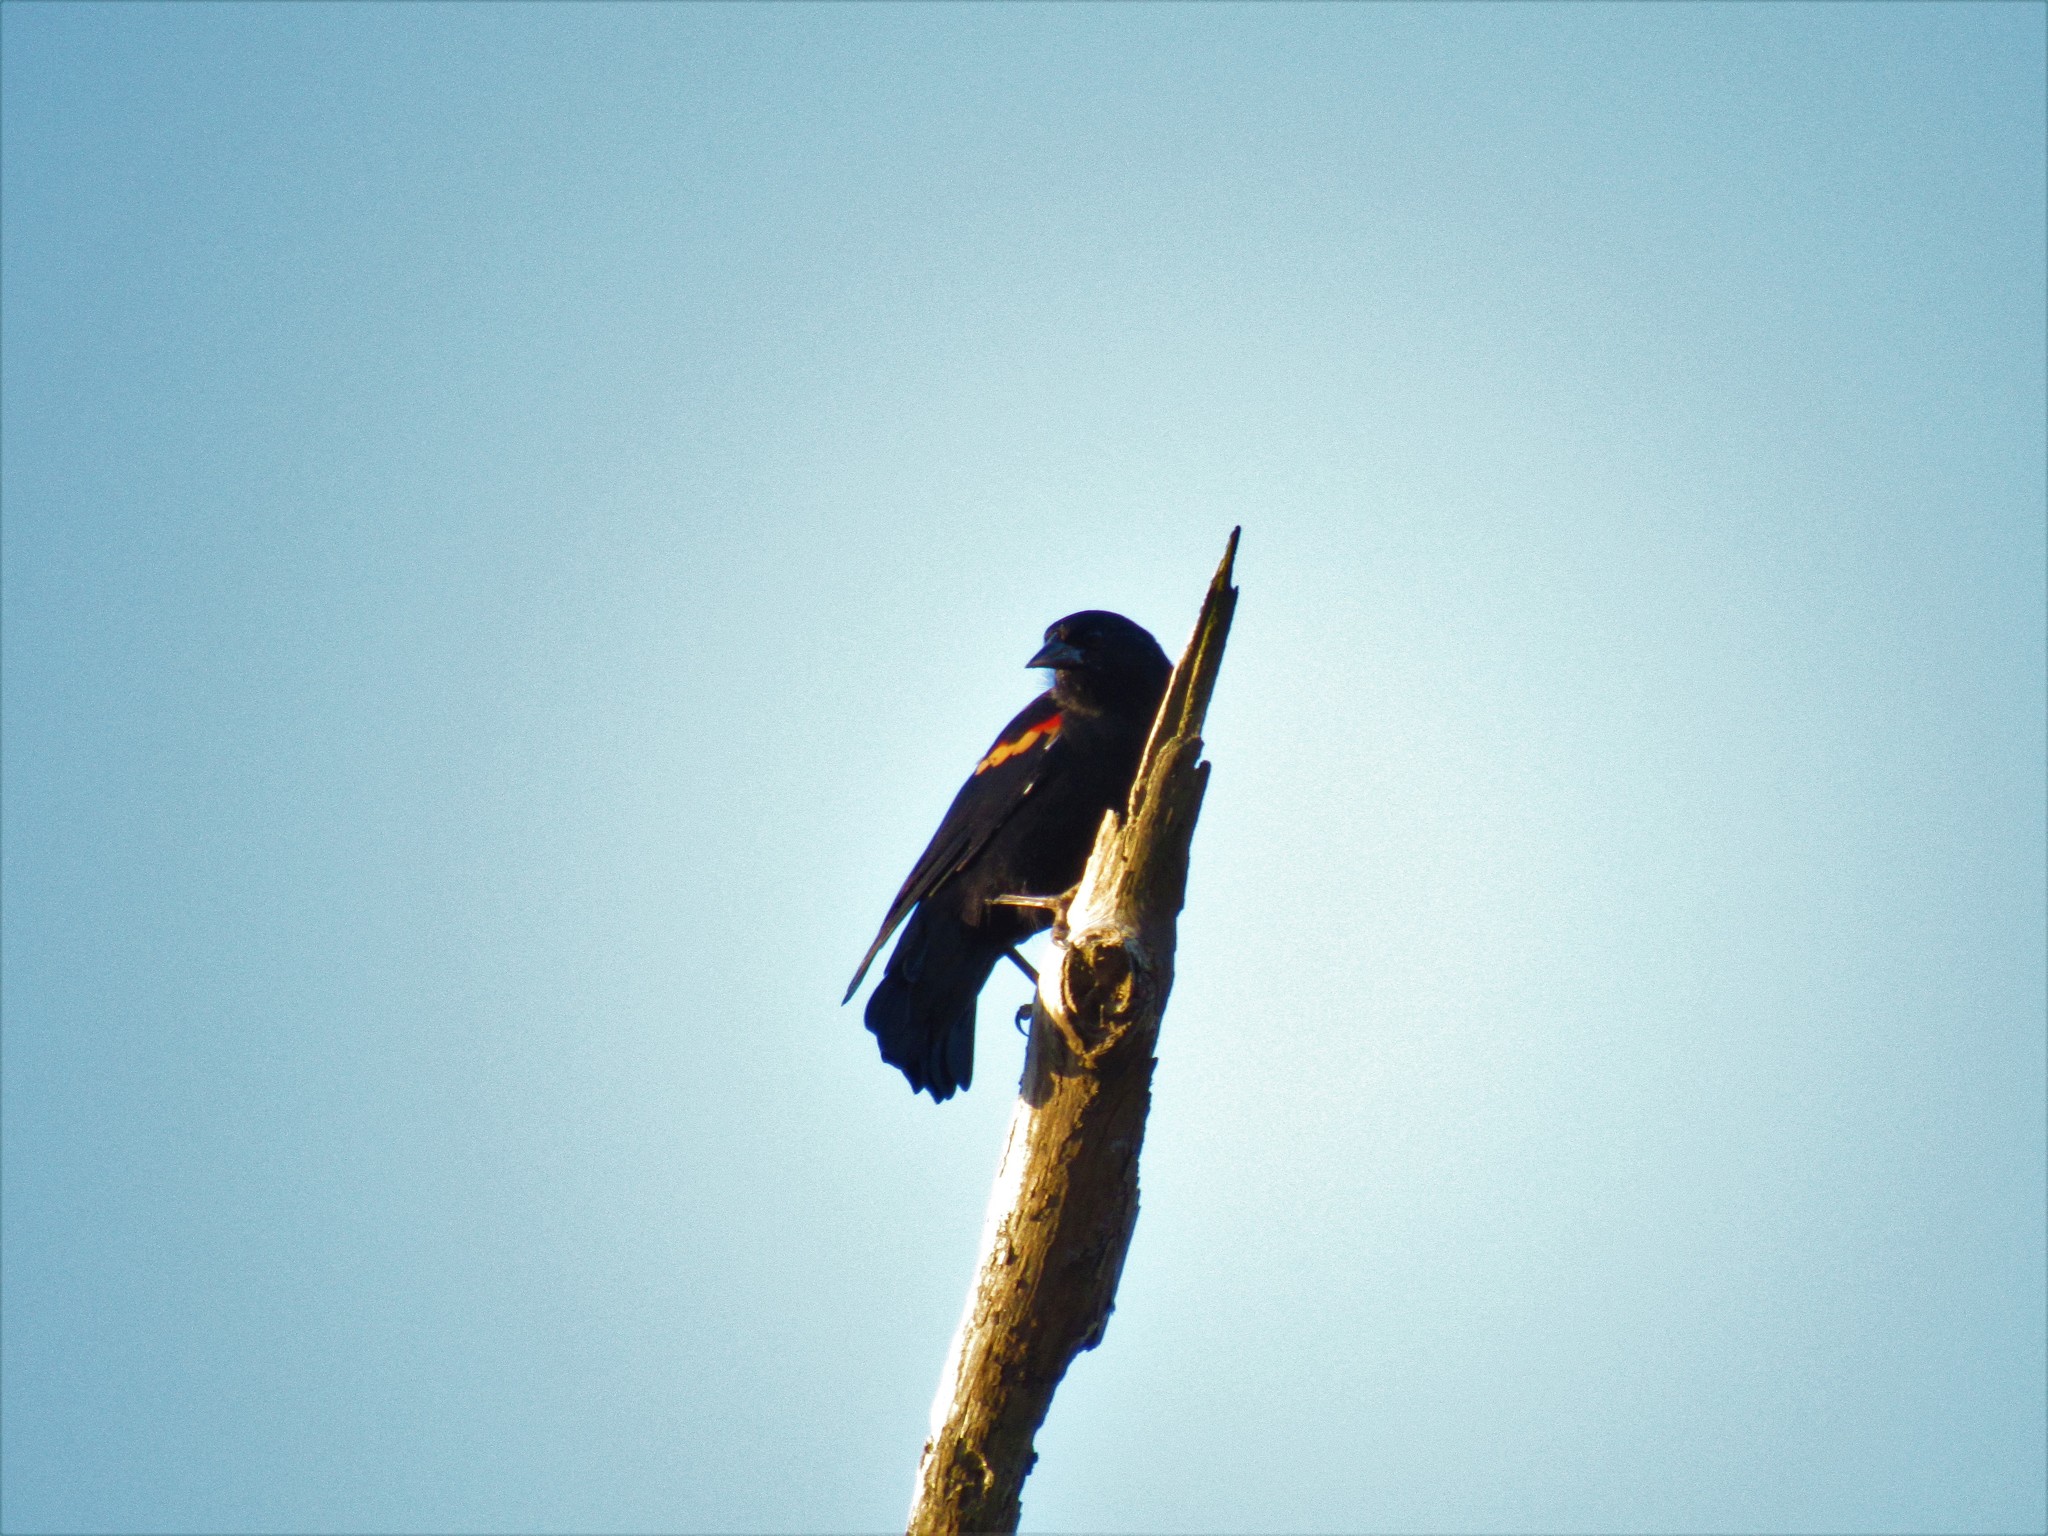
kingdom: Animalia
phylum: Chordata
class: Aves
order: Passeriformes
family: Icteridae
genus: Agelaius
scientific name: Agelaius phoeniceus
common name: Red-winged blackbird
